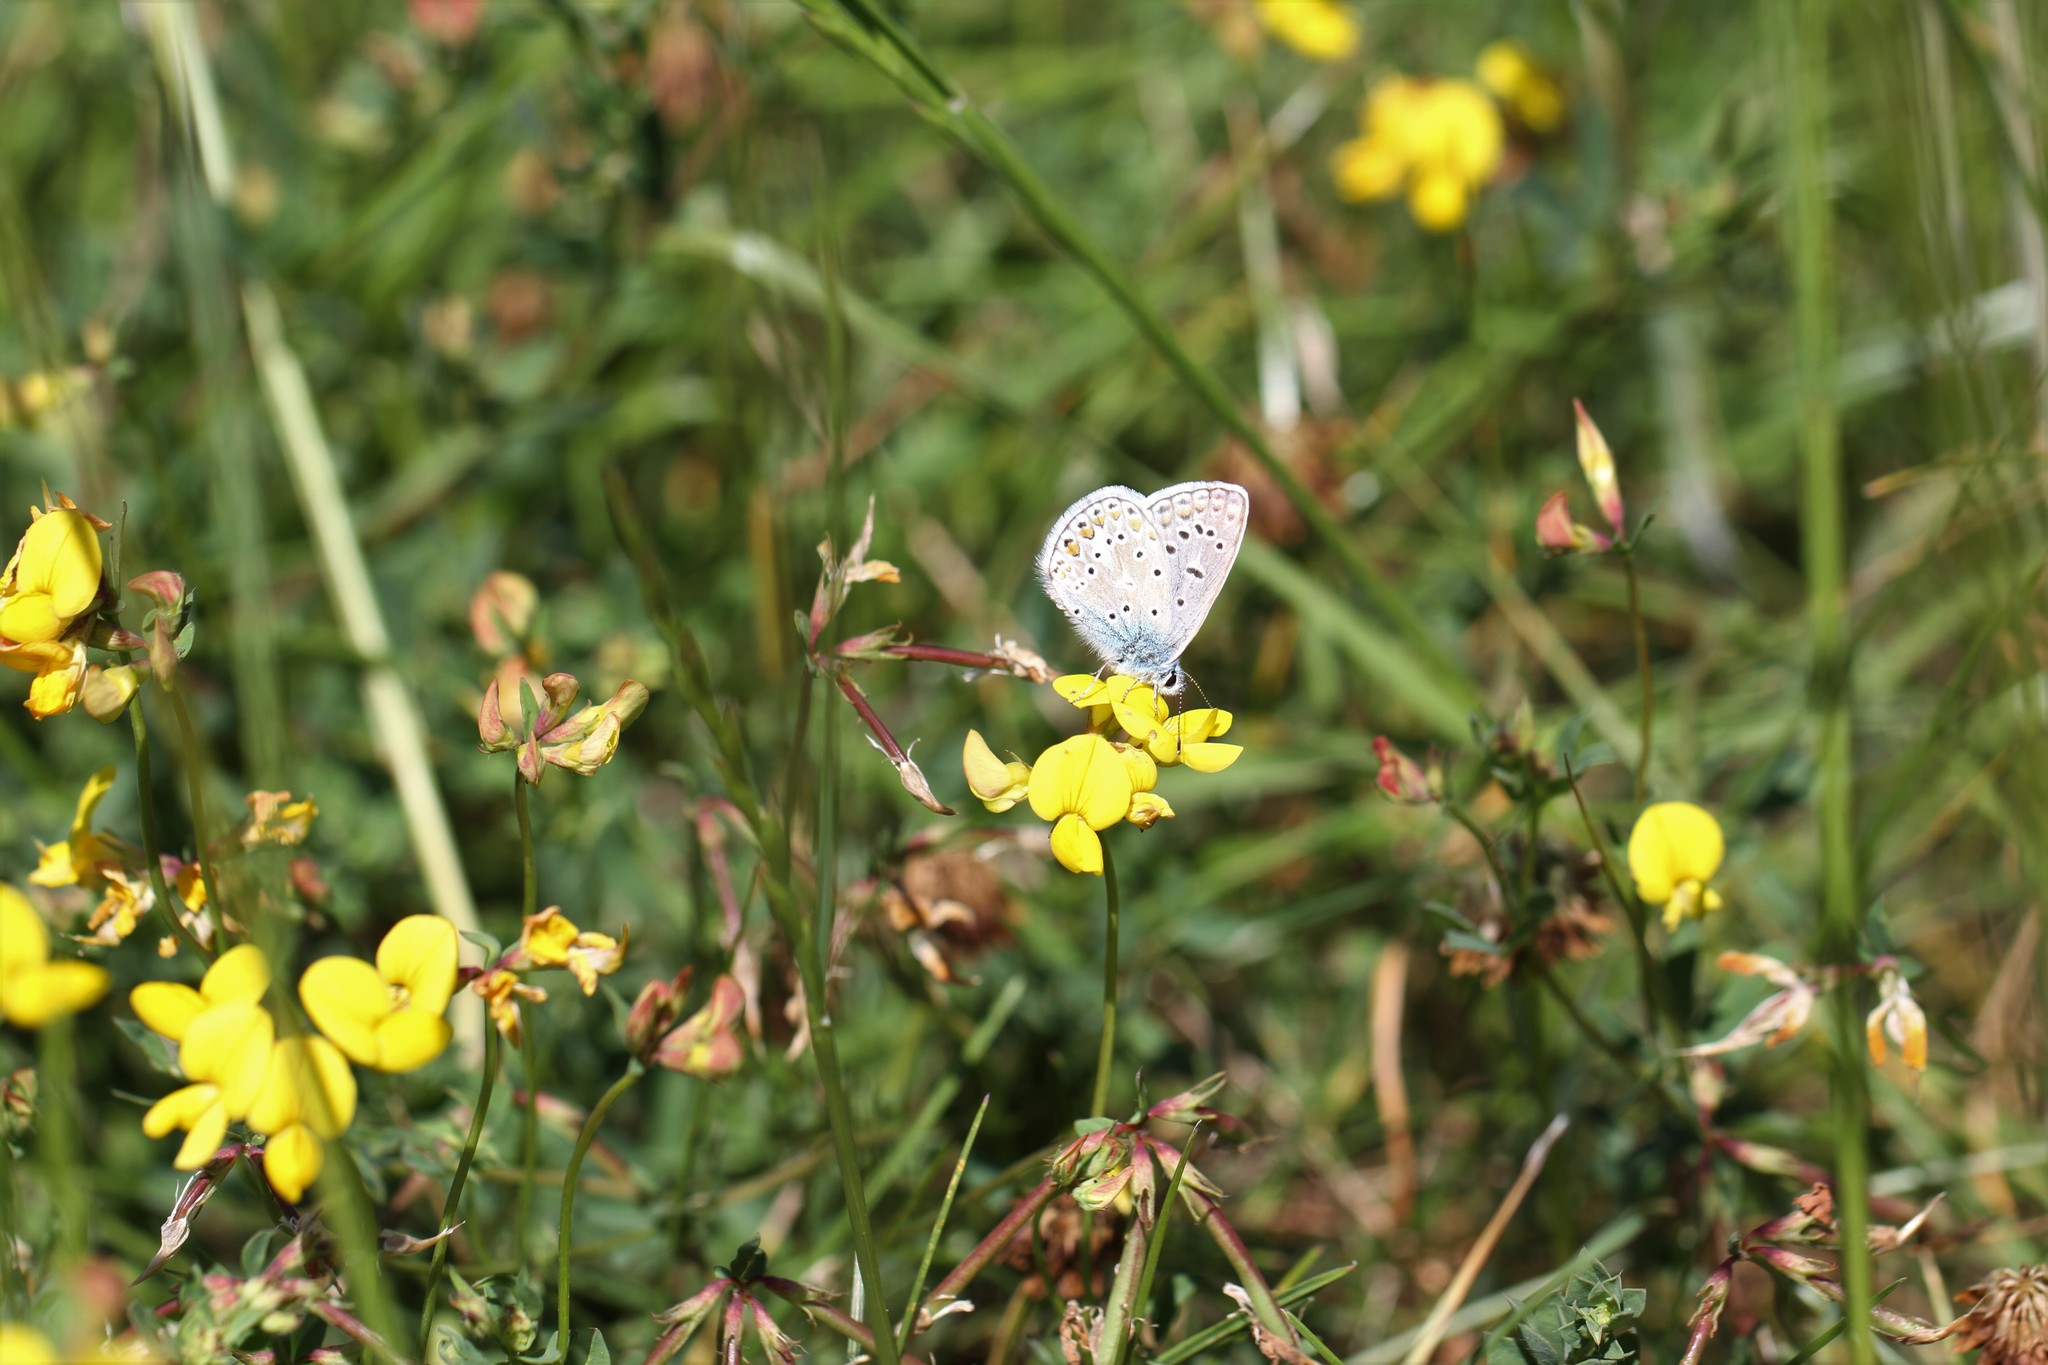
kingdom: Animalia
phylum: Arthropoda
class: Insecta
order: Lepidoptera
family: Lycaenidae
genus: Polyommatus
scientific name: Polyommatus icarus
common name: Common blue
